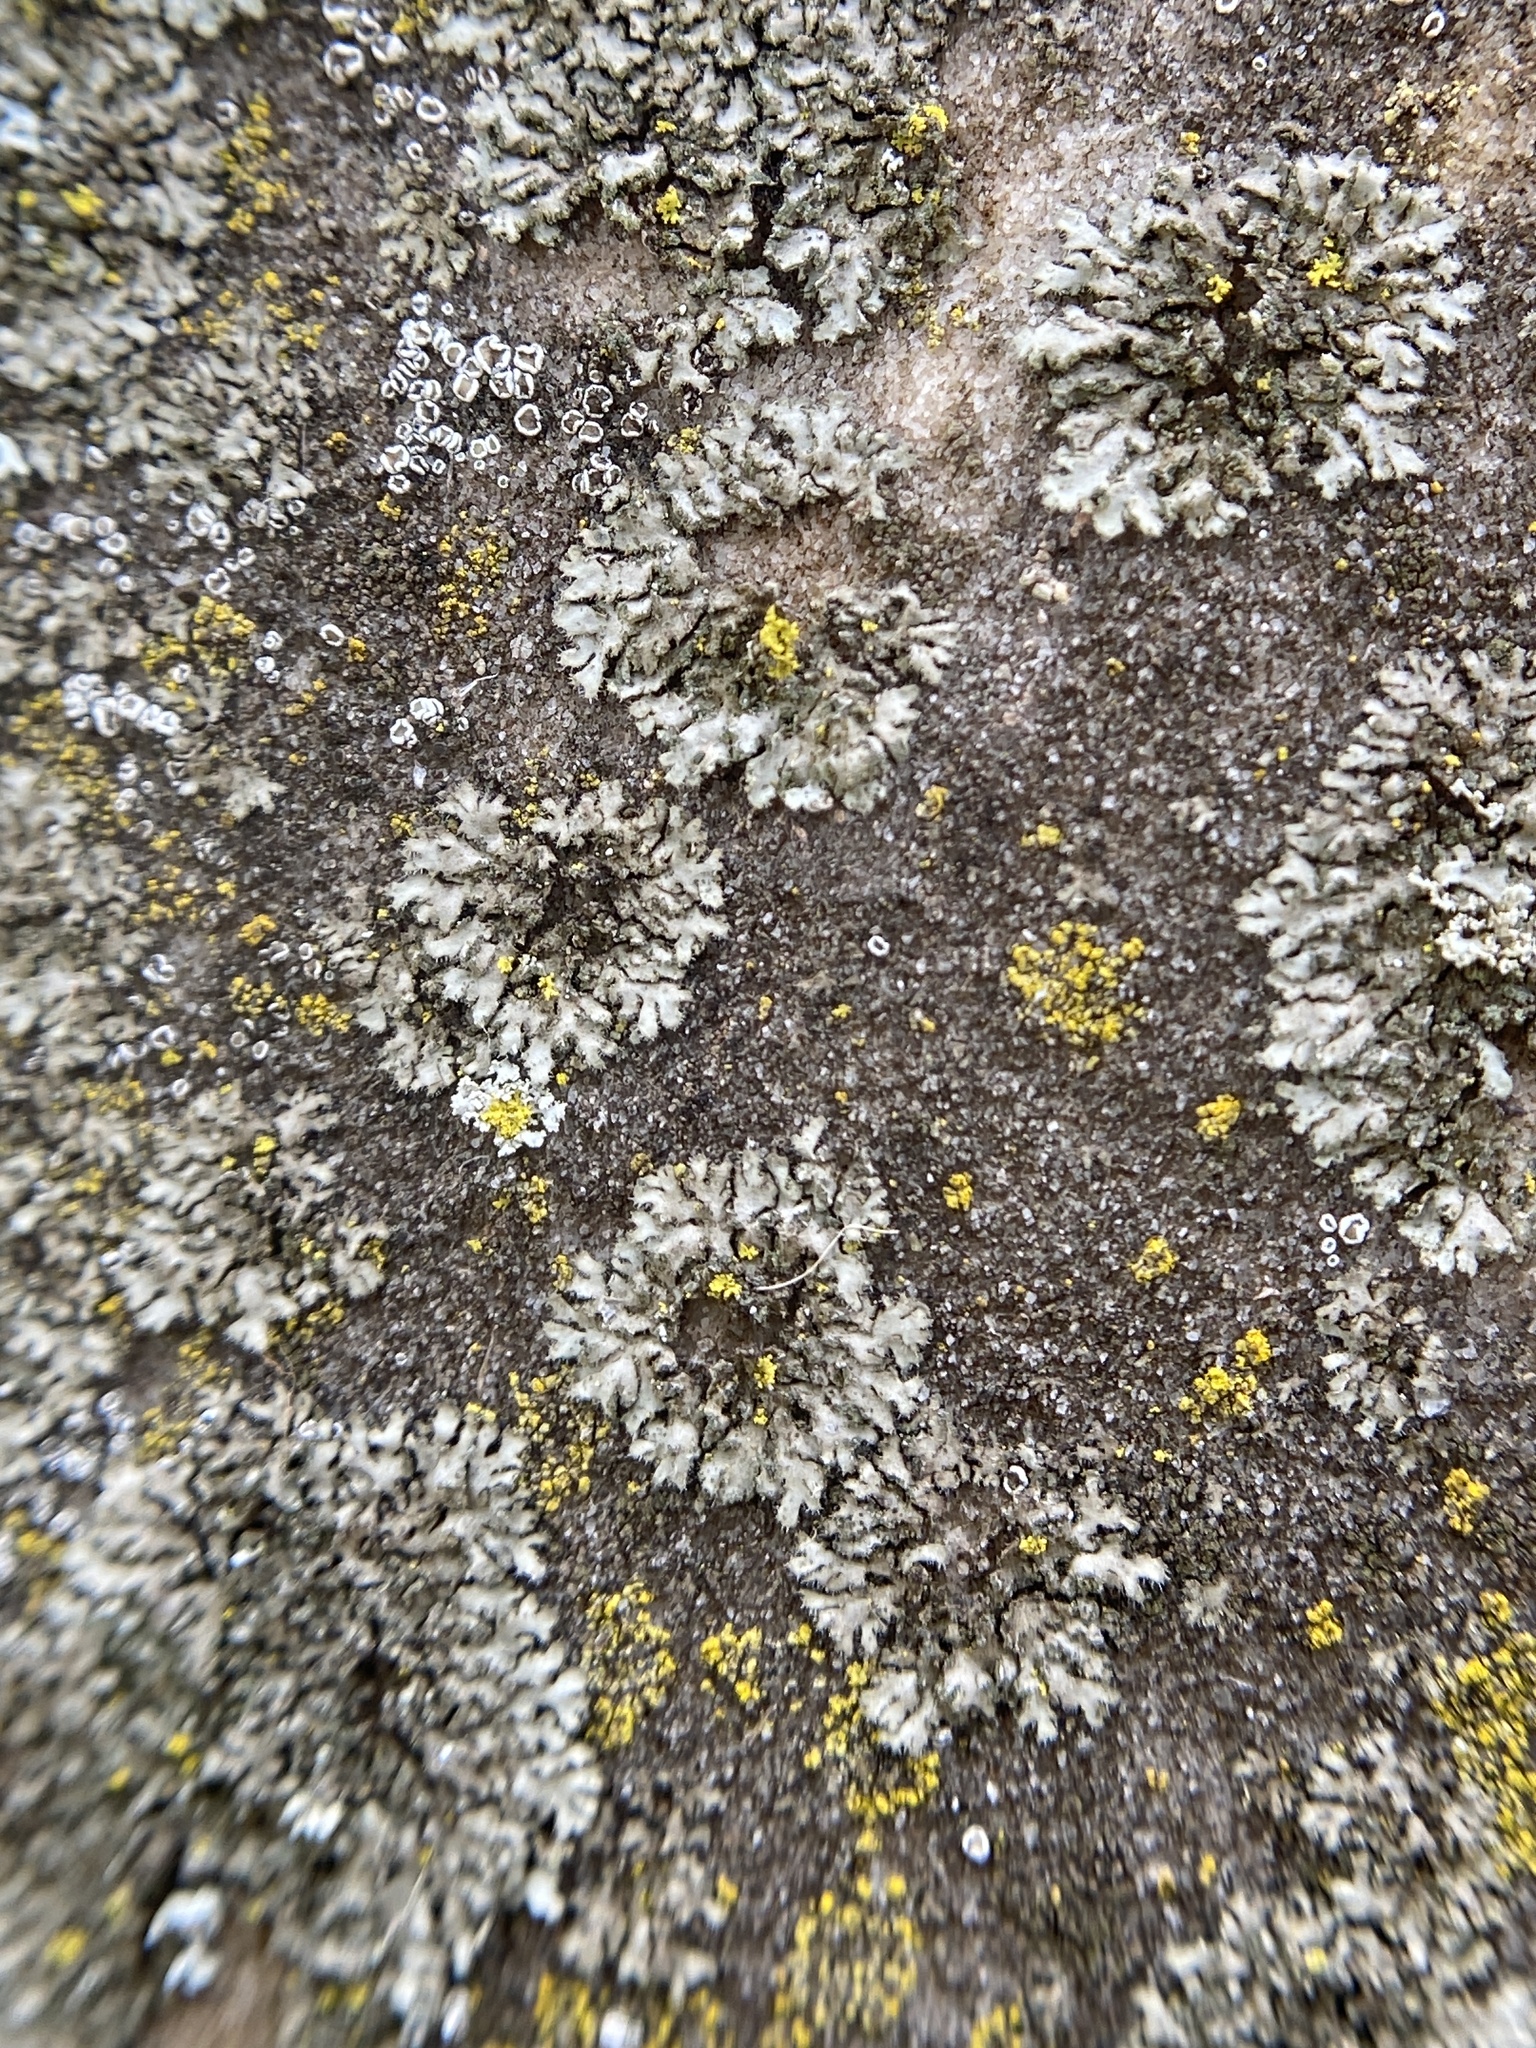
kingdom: Fungi
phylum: Ascomycota
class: Lecanoromycetes
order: Caliciales
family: Physciaceae
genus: Phaeophyscia
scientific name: Phaeophyscia hirsuta
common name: Hairy shadow lichen
